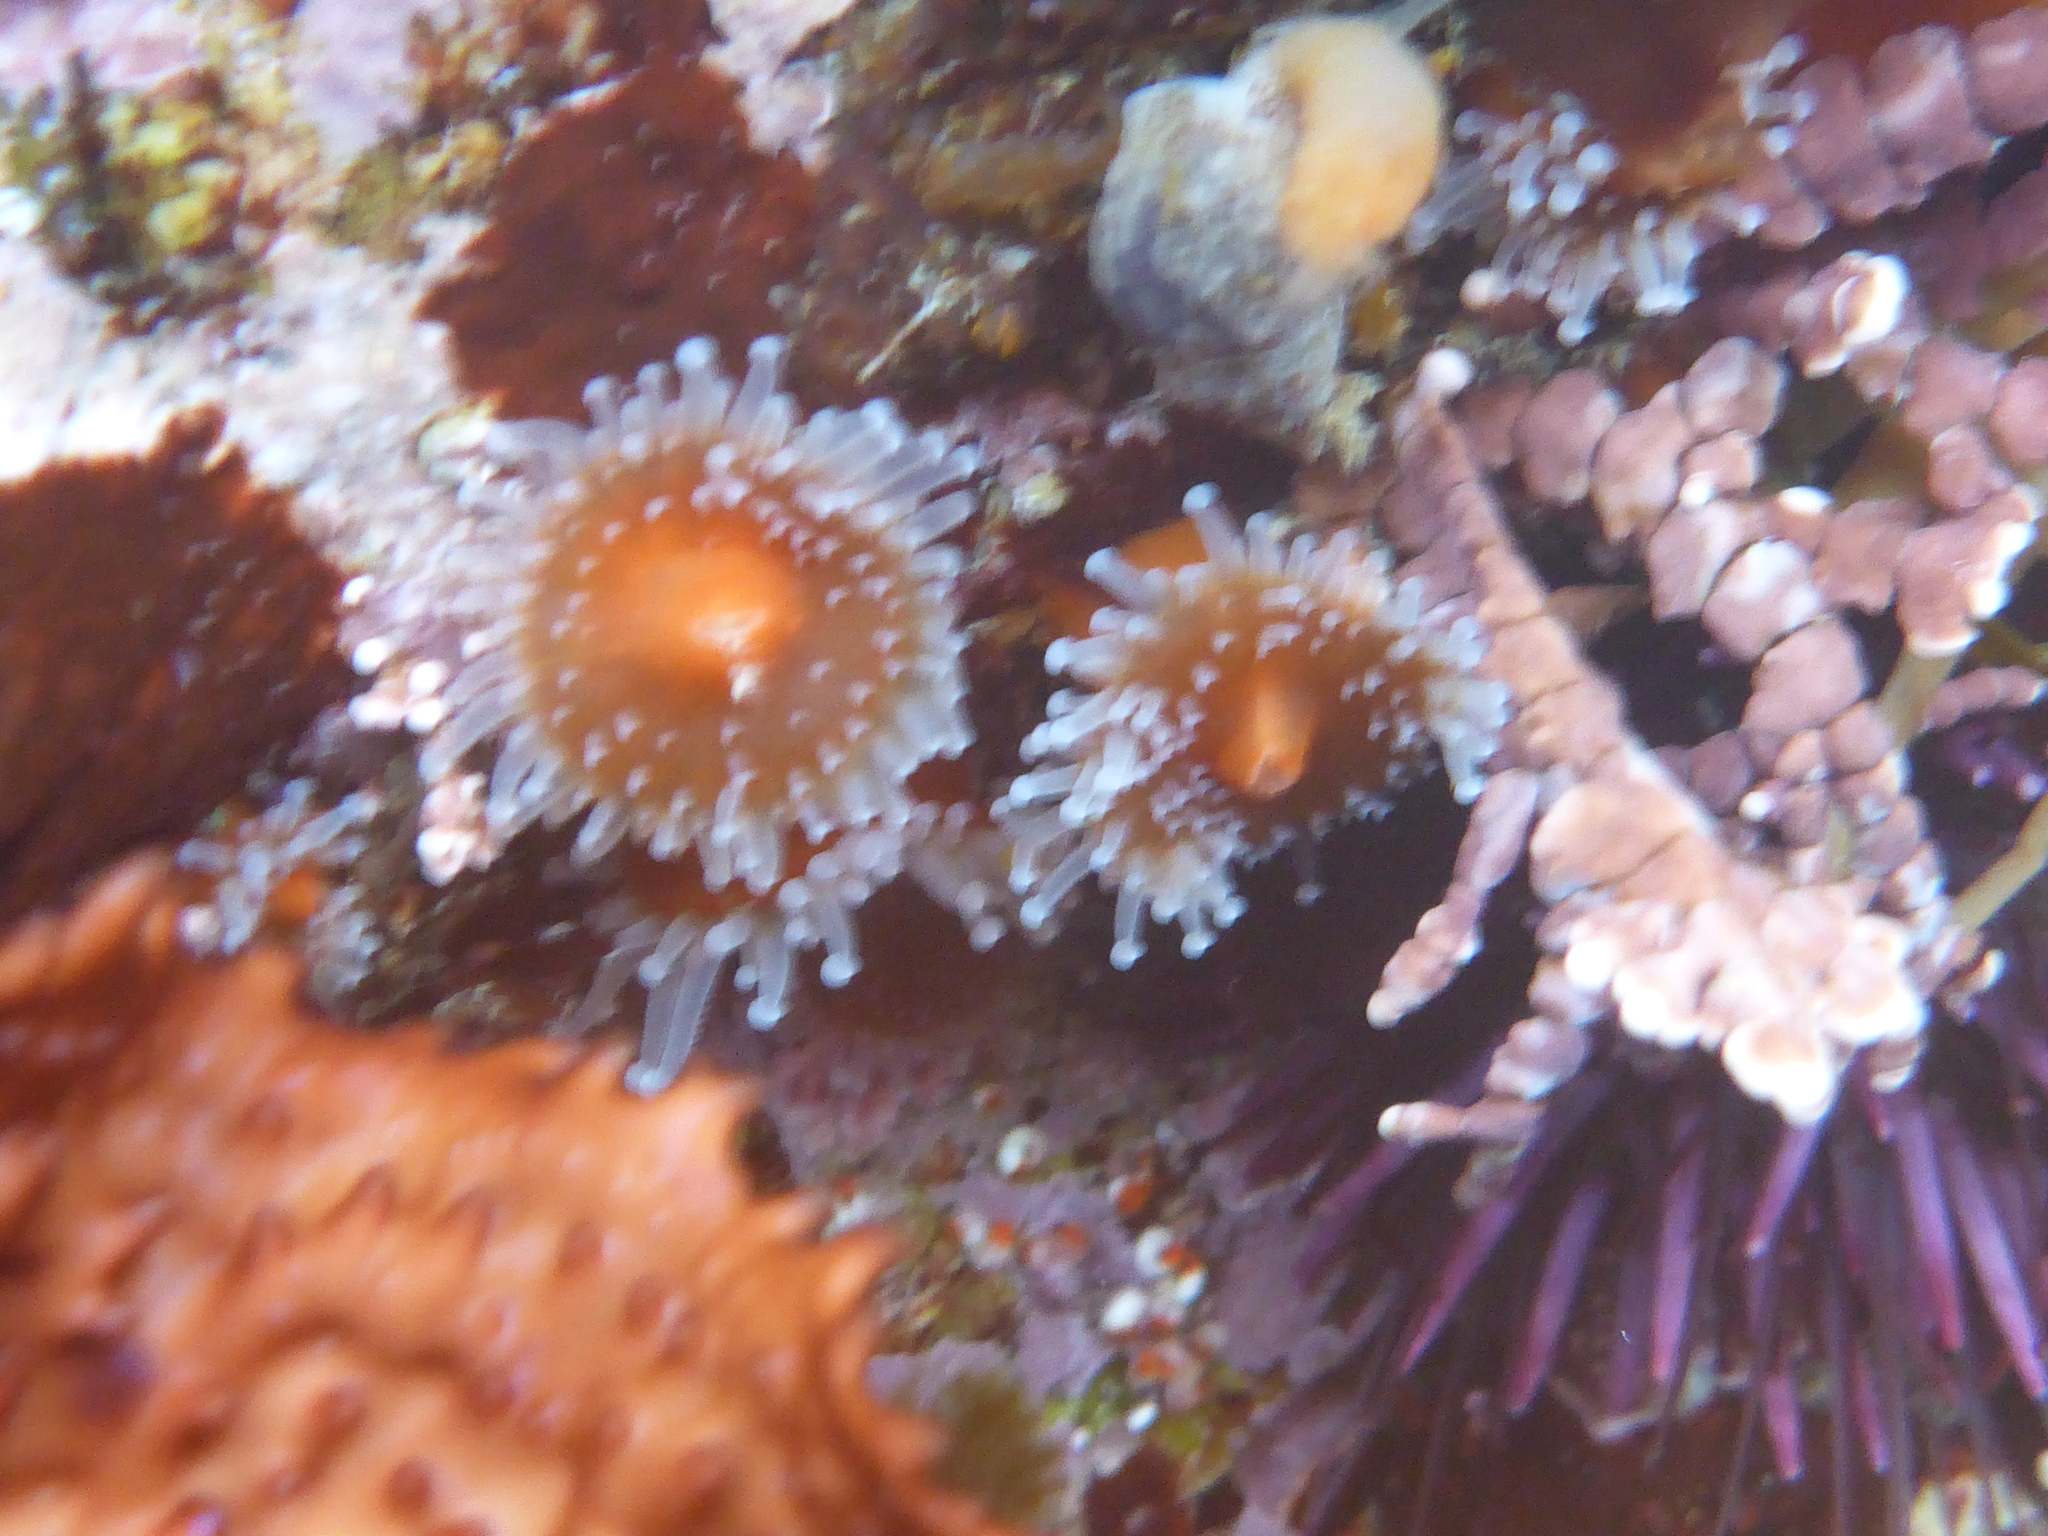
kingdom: Animalia
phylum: Cnidaria
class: Anthozoa
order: Corallimorpharia
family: Corallimorphidae
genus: Corynactis
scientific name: Corynactis californica
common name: Strawberry corallimorpharian
